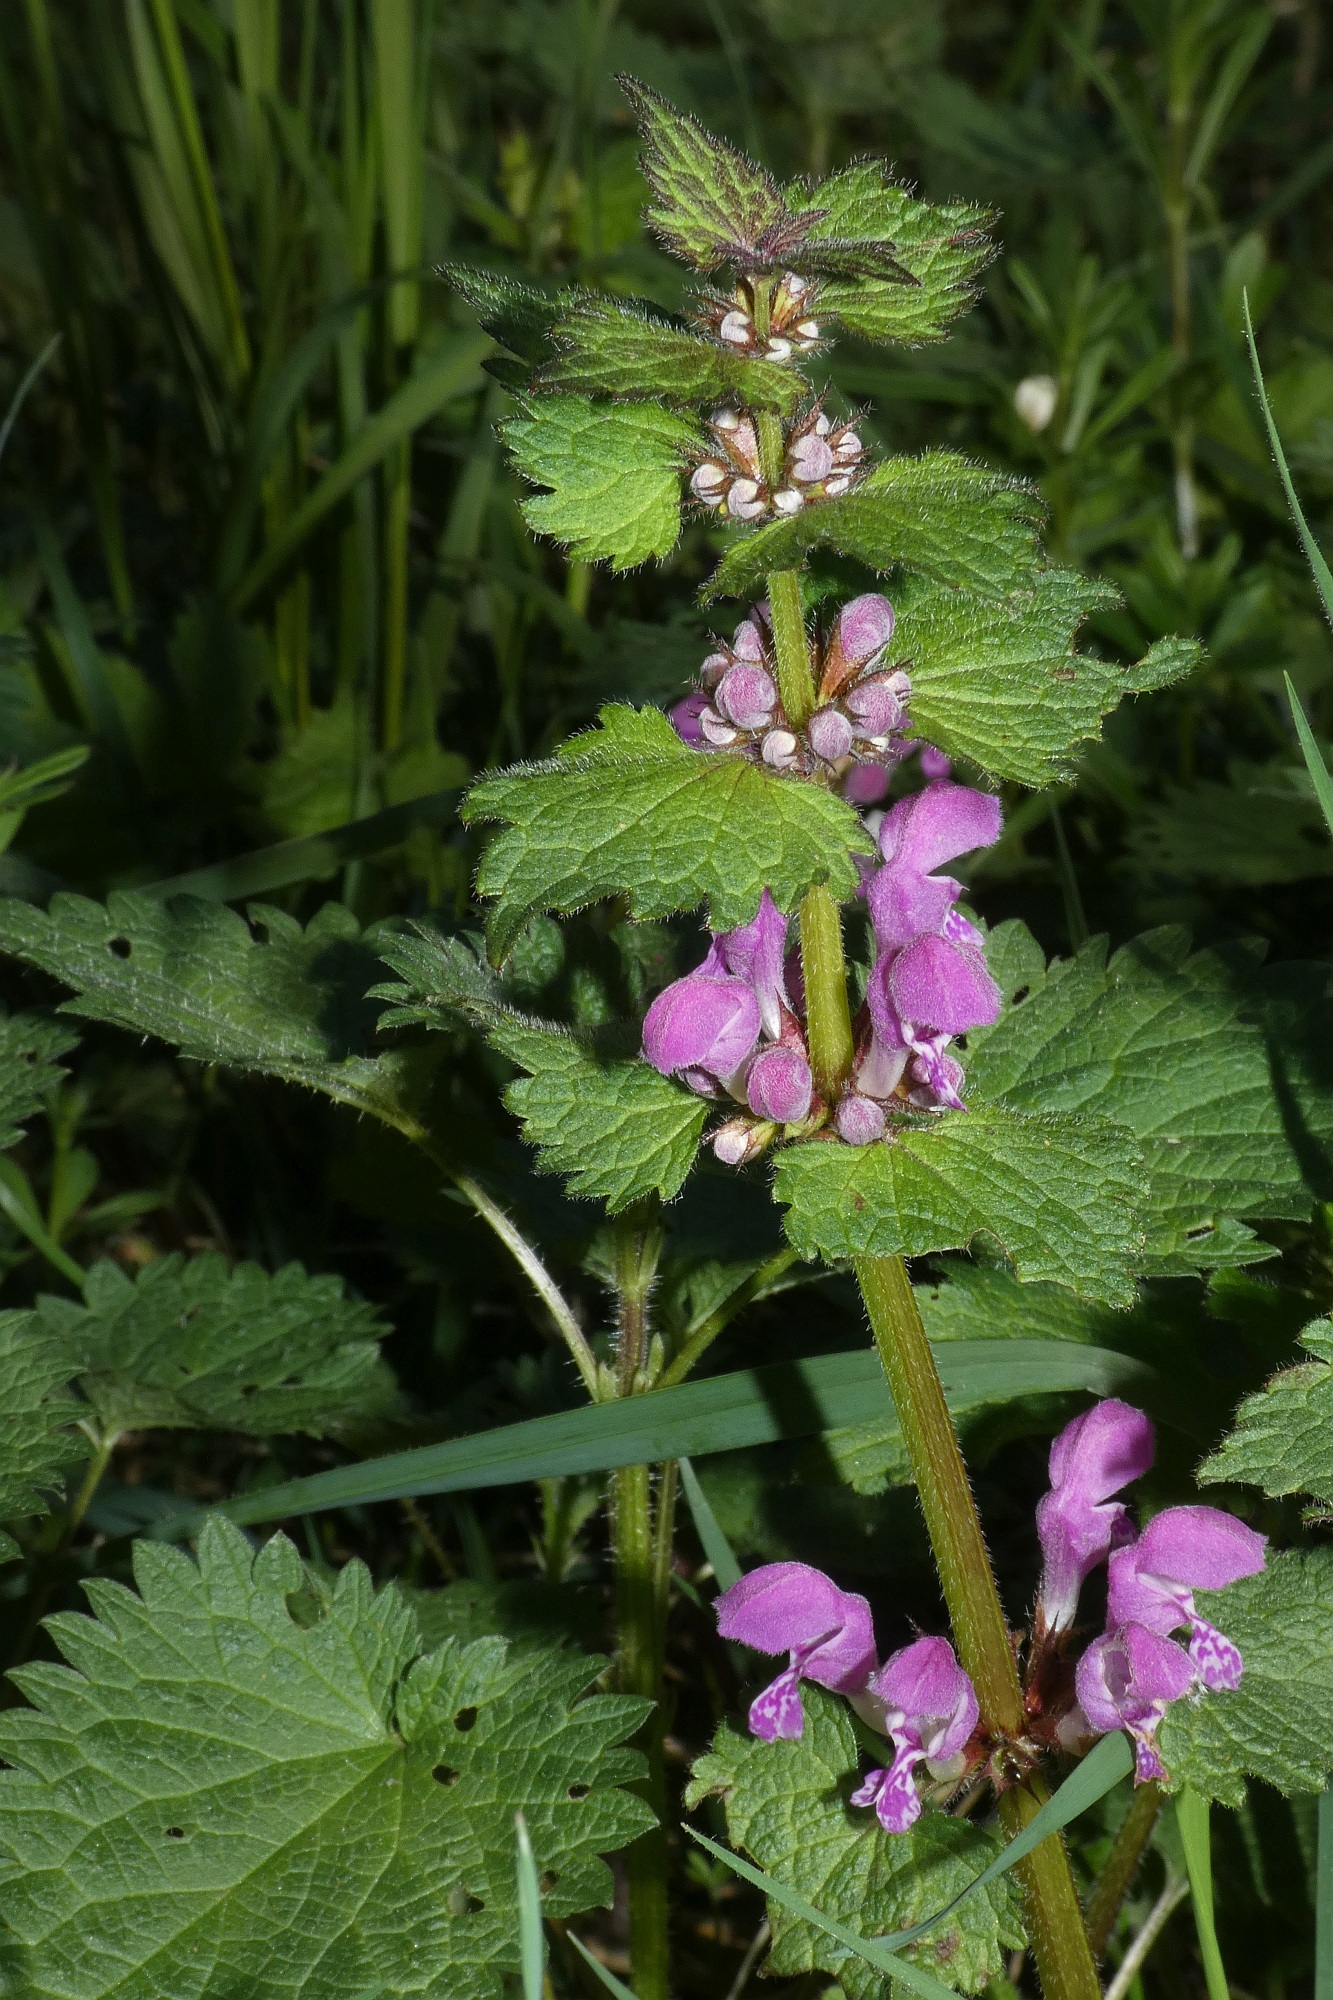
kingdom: Plantae
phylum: Tracheophyta
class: Magnoliopsida
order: Lamiales
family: Lamiaceae
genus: Lamium
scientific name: Lamium maculatum
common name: Spotted dead-nettle
